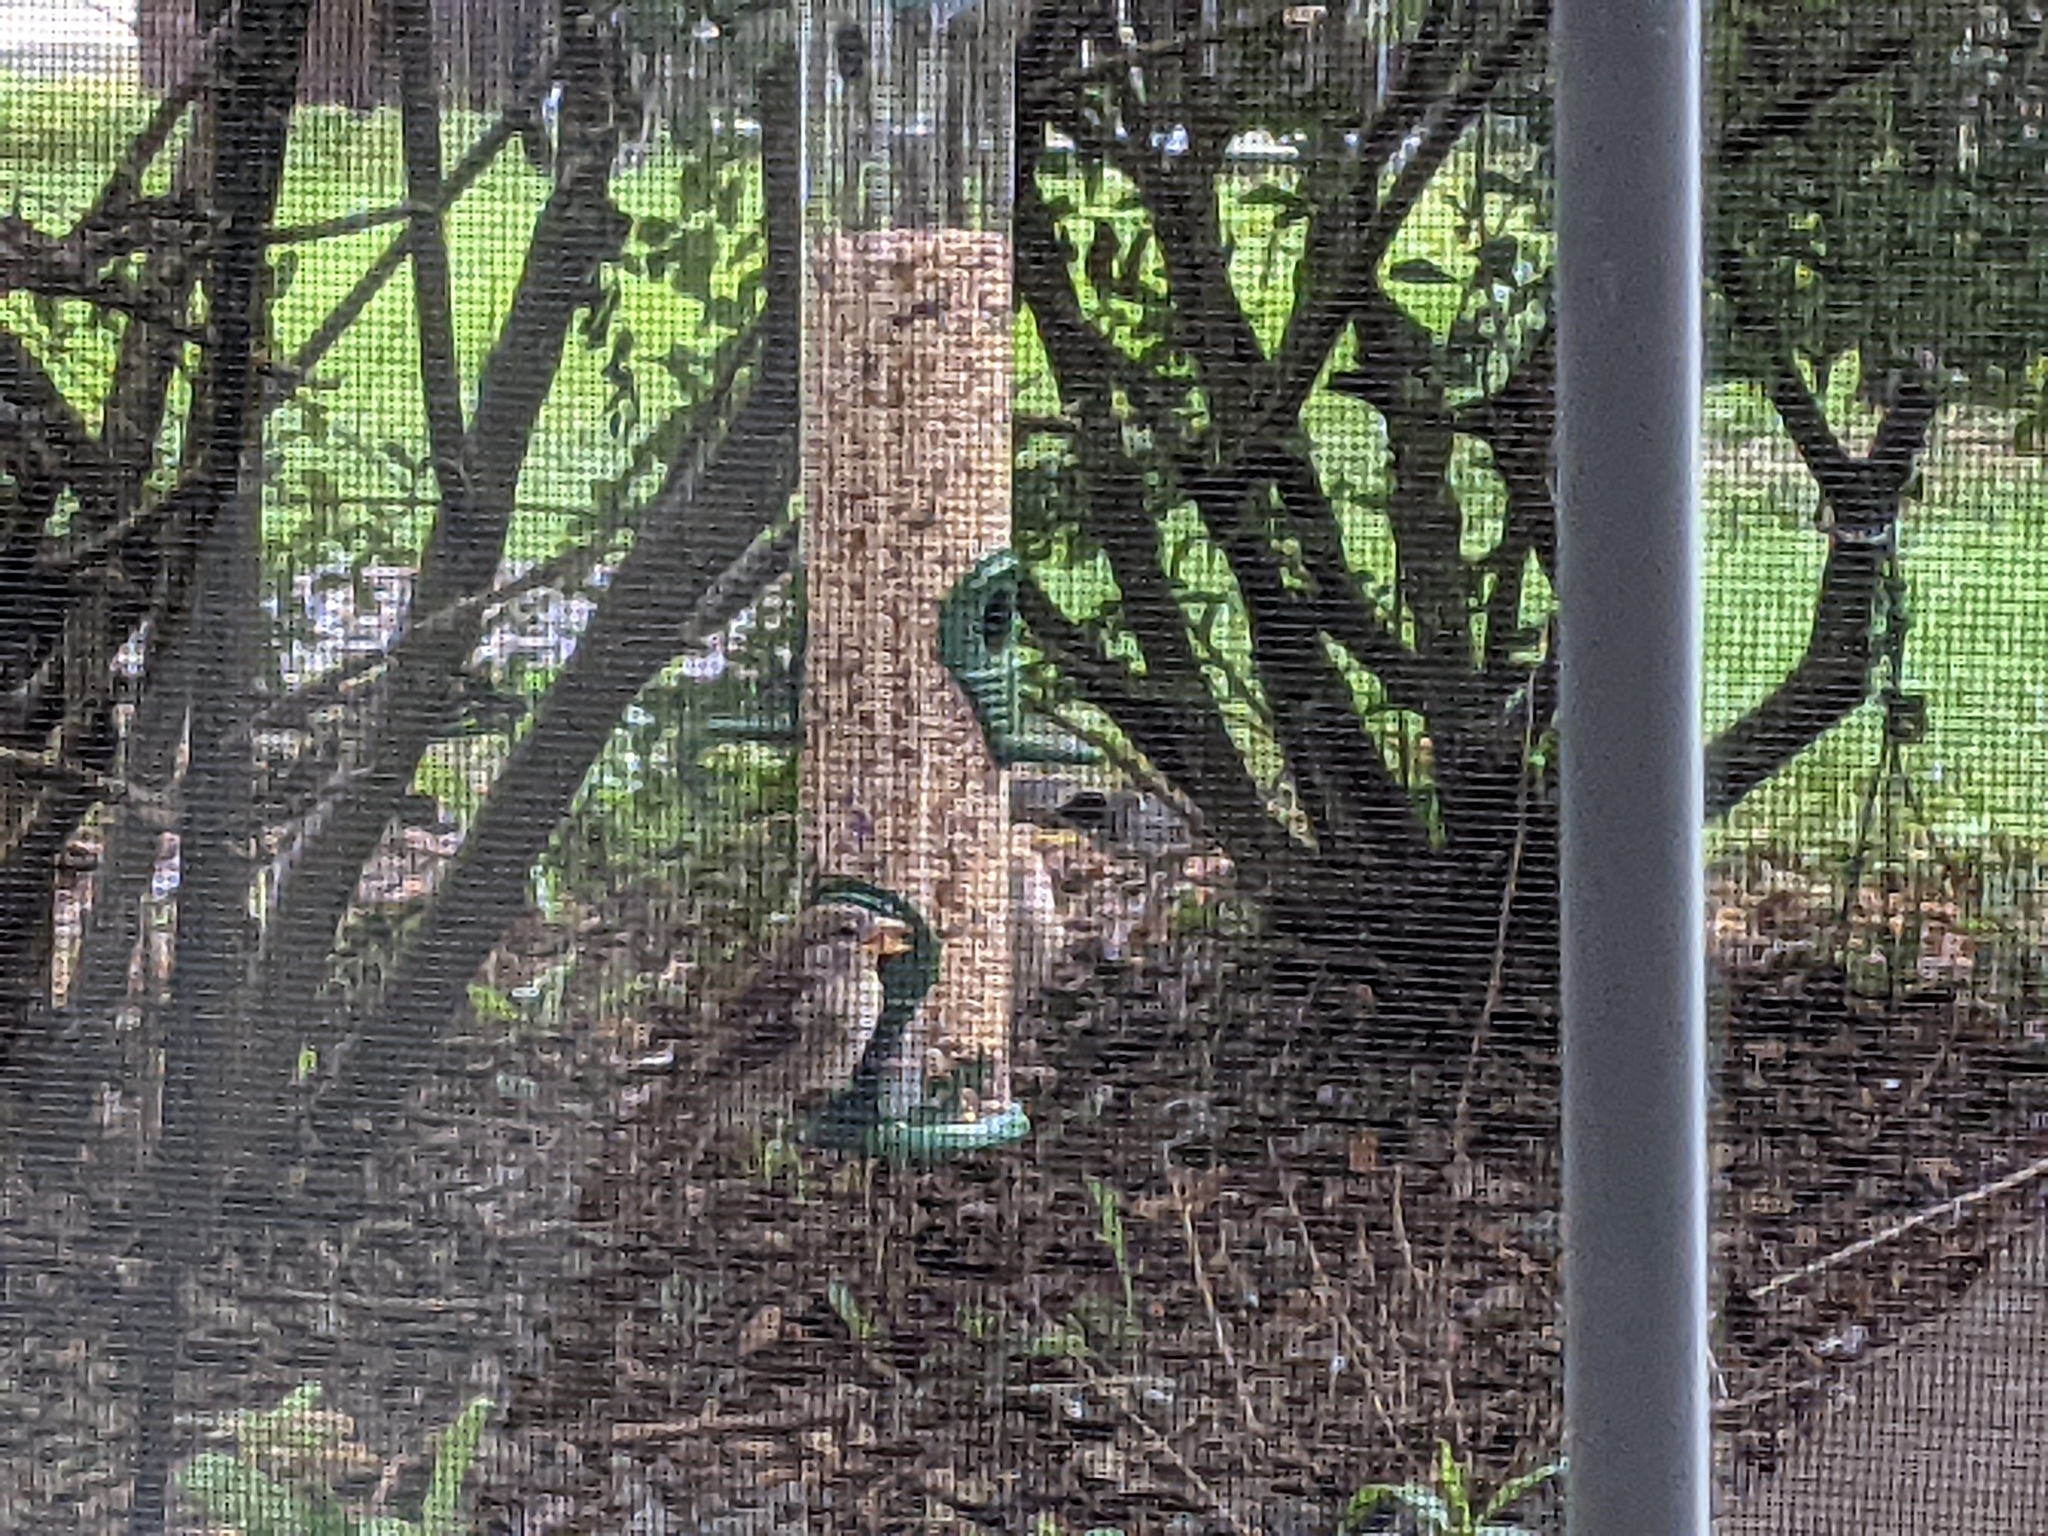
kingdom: Animalia
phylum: Chordata
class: Aves
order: Passeriformes
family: Passeridae
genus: Passer
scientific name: Passer domesticus
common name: House sparrow
